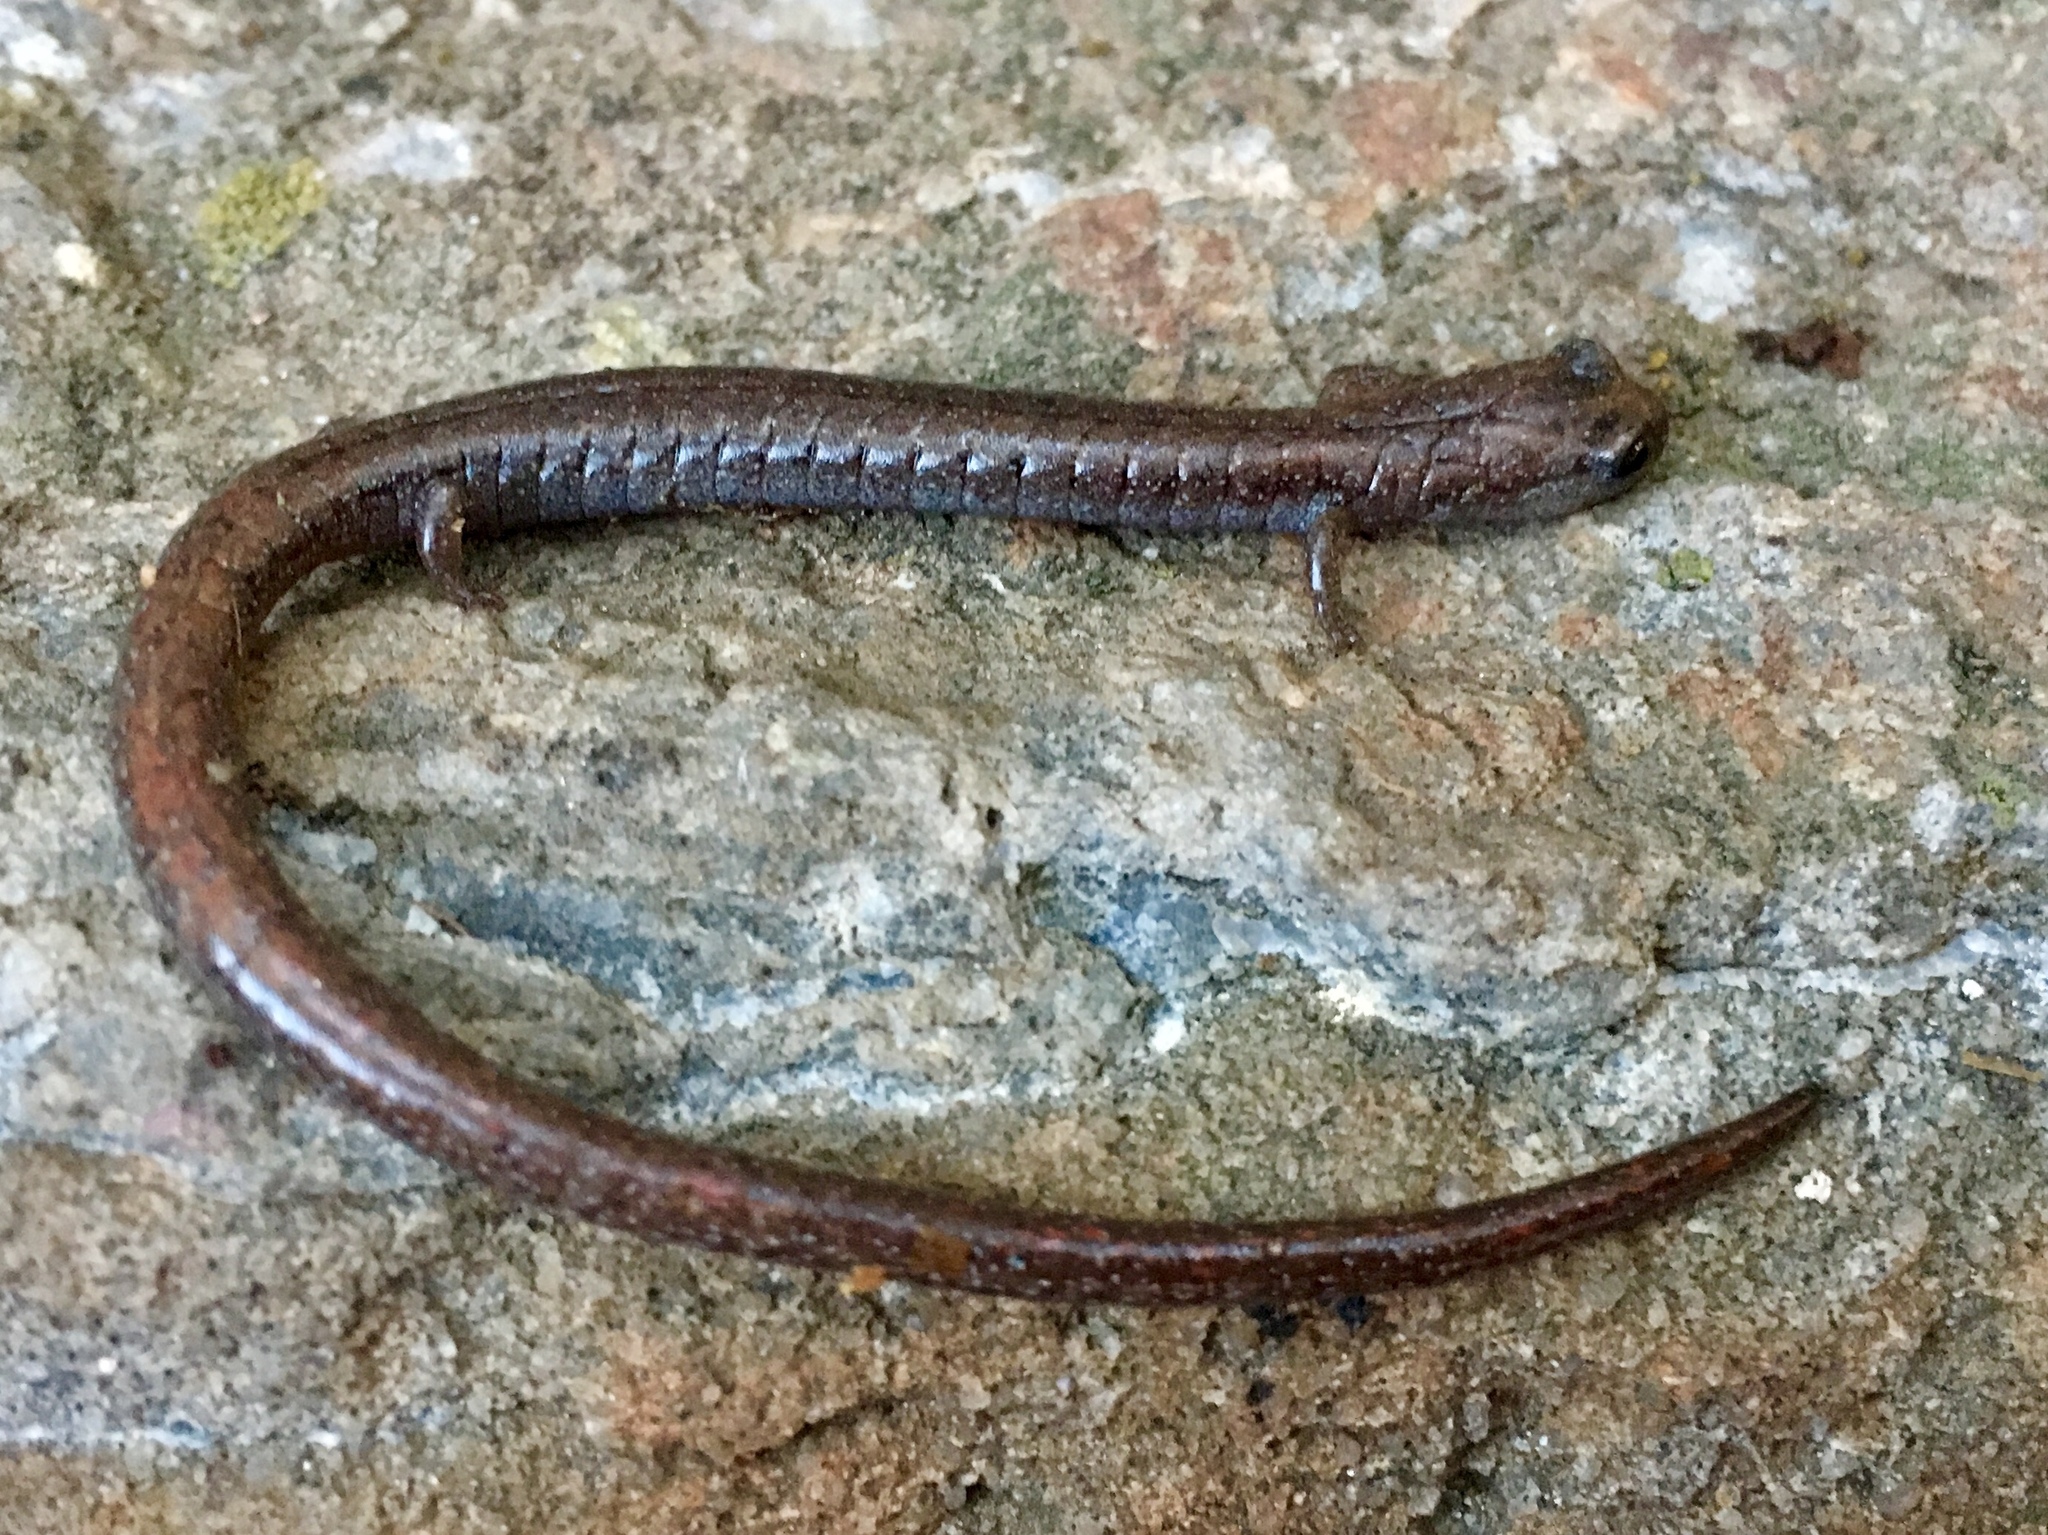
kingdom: Animalia
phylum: Chordata
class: Amphibia
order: Caudata
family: Plethodontidae
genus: Batrachoseps
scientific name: Batrachoseps major
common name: Garden slender salamander
